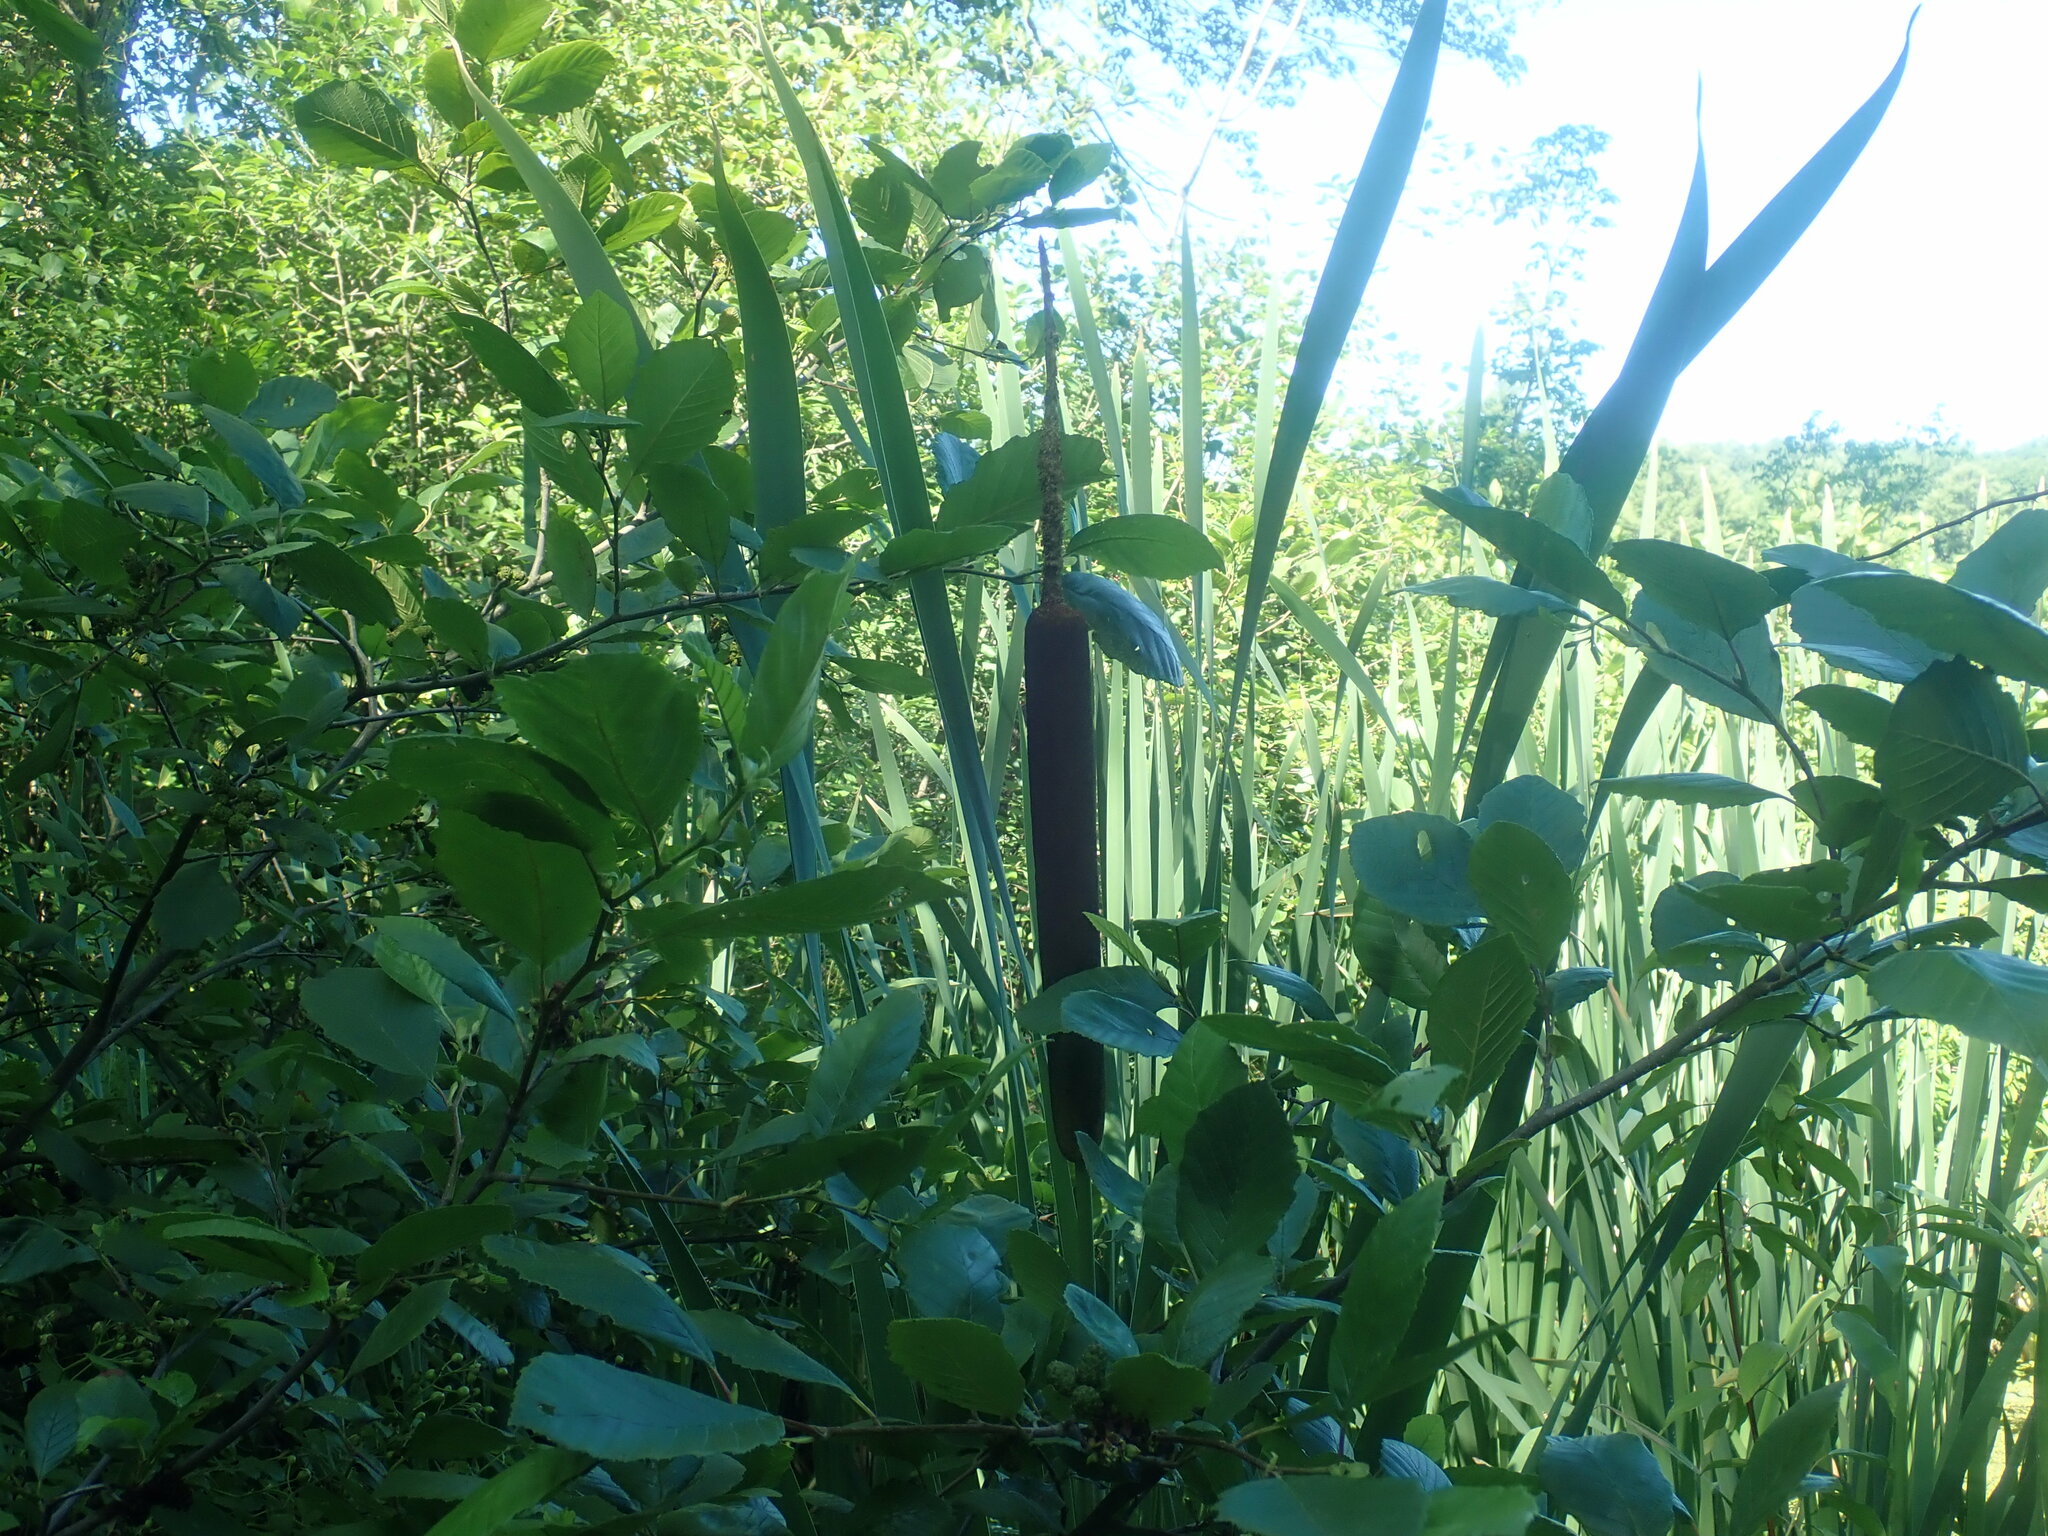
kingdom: Plantae
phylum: Tracheophyta
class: Liliopsida
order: Poales
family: Typhaceae
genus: Typha
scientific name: Typha latifolia
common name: Broadleaf cattail
